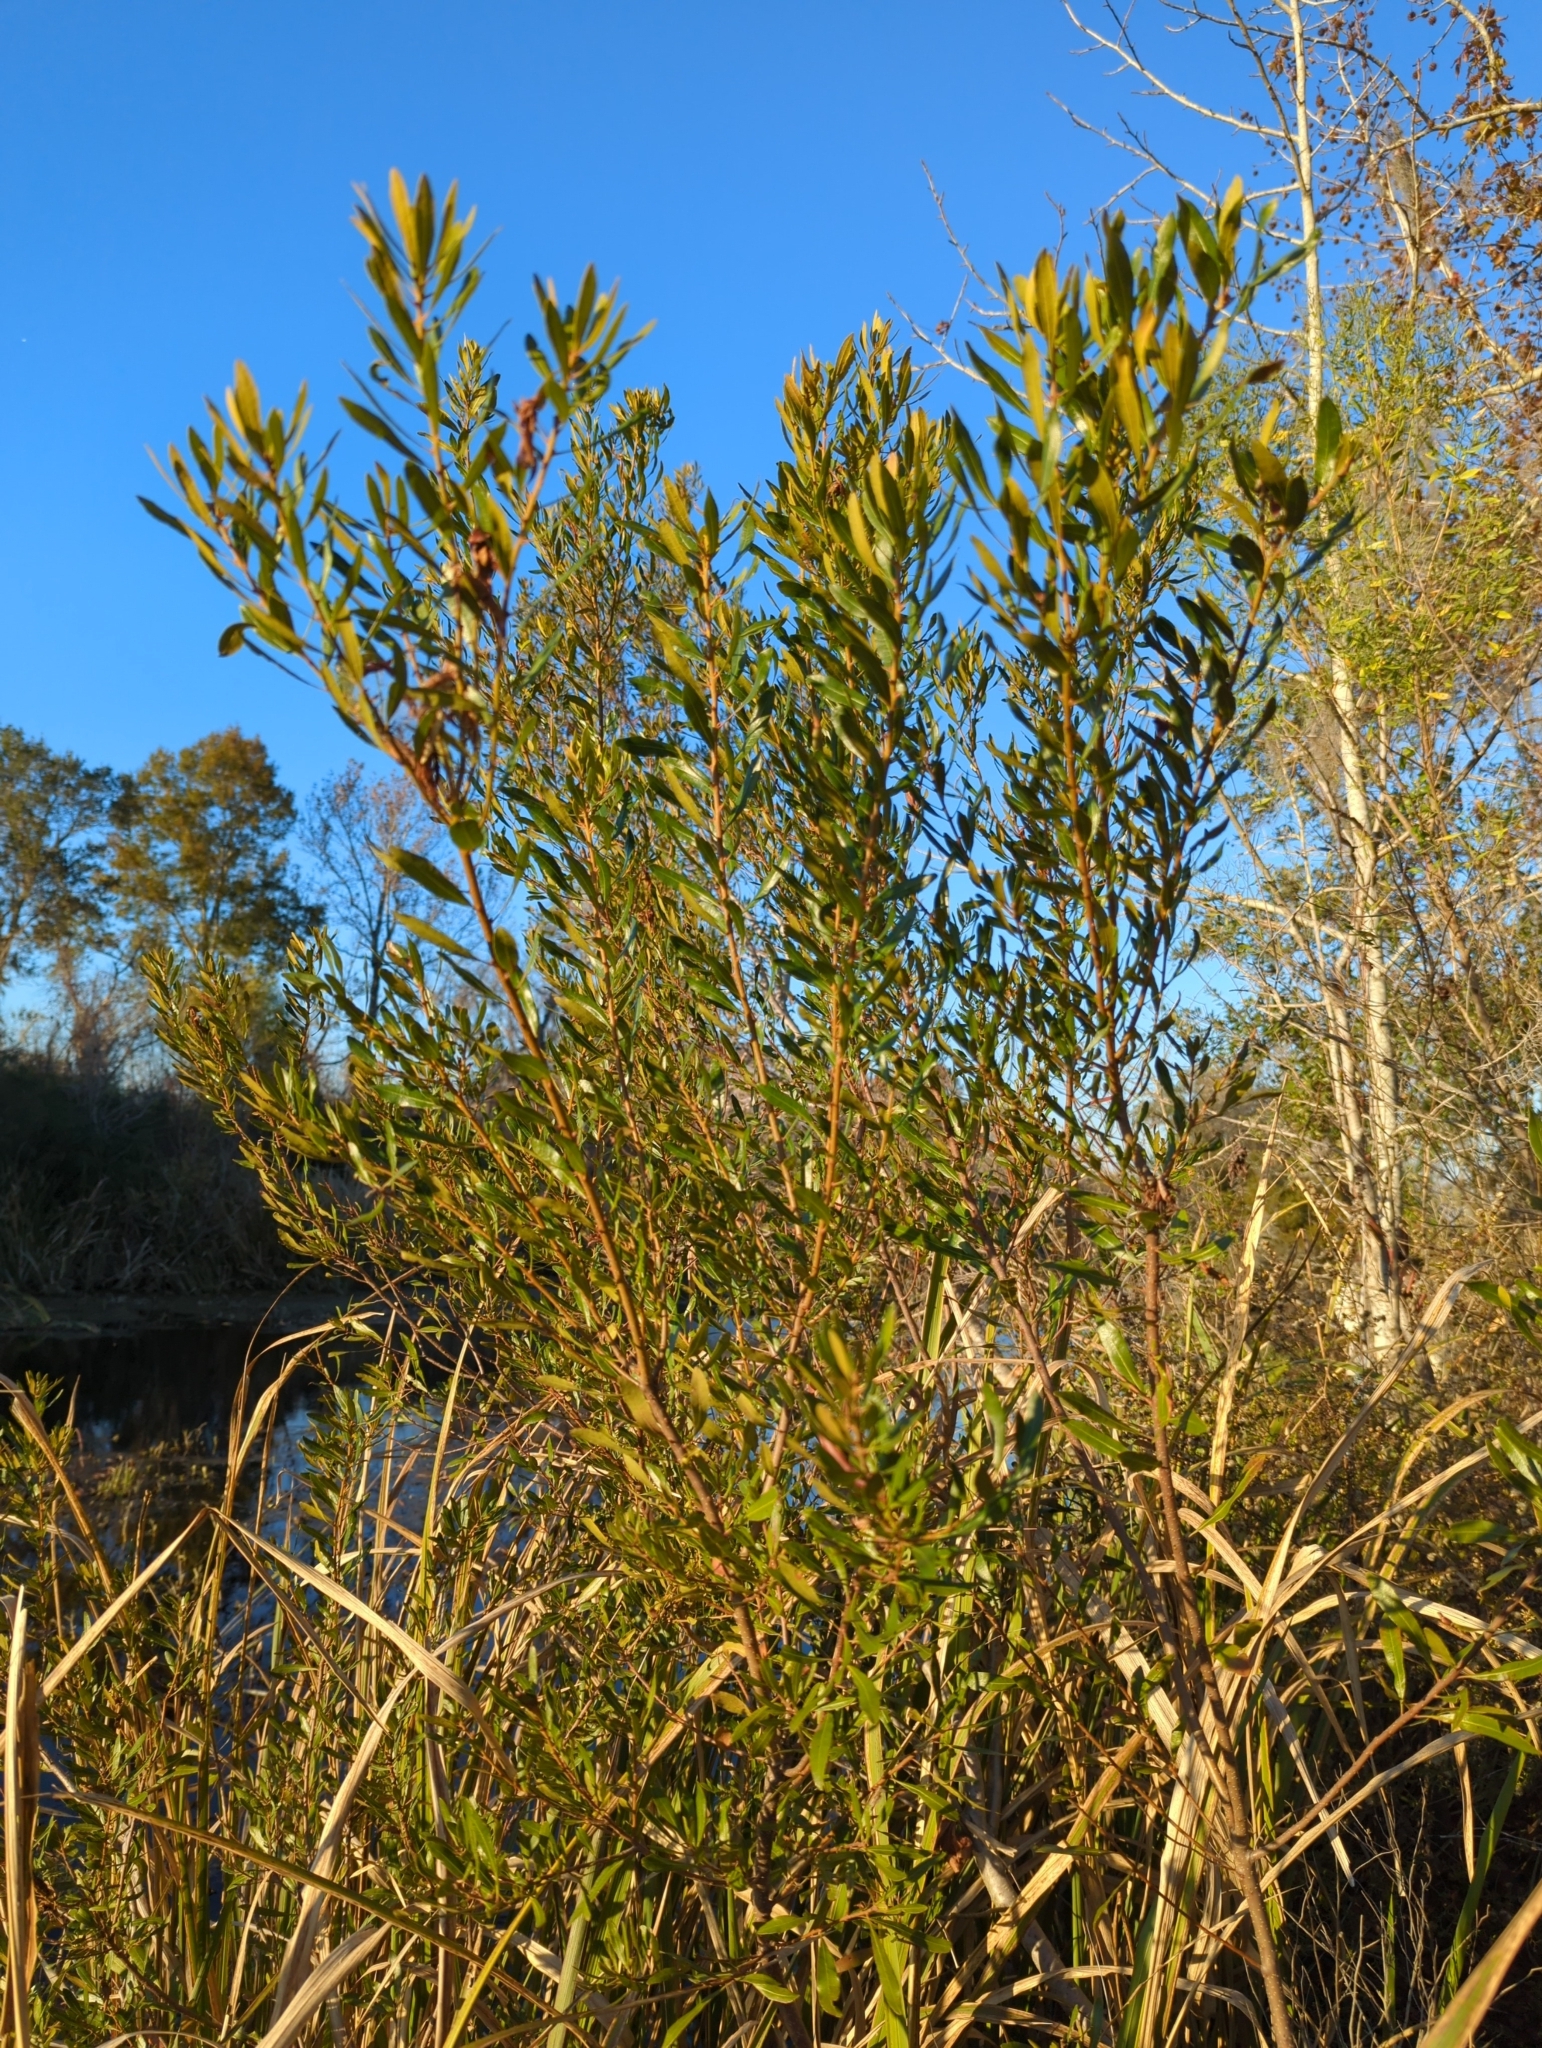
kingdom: Plantae
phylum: Tracheophyta
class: Magnoliopsida
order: Fagales
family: Myricaceae
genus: Morella
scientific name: Morella cerifera
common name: Wax myrtle
